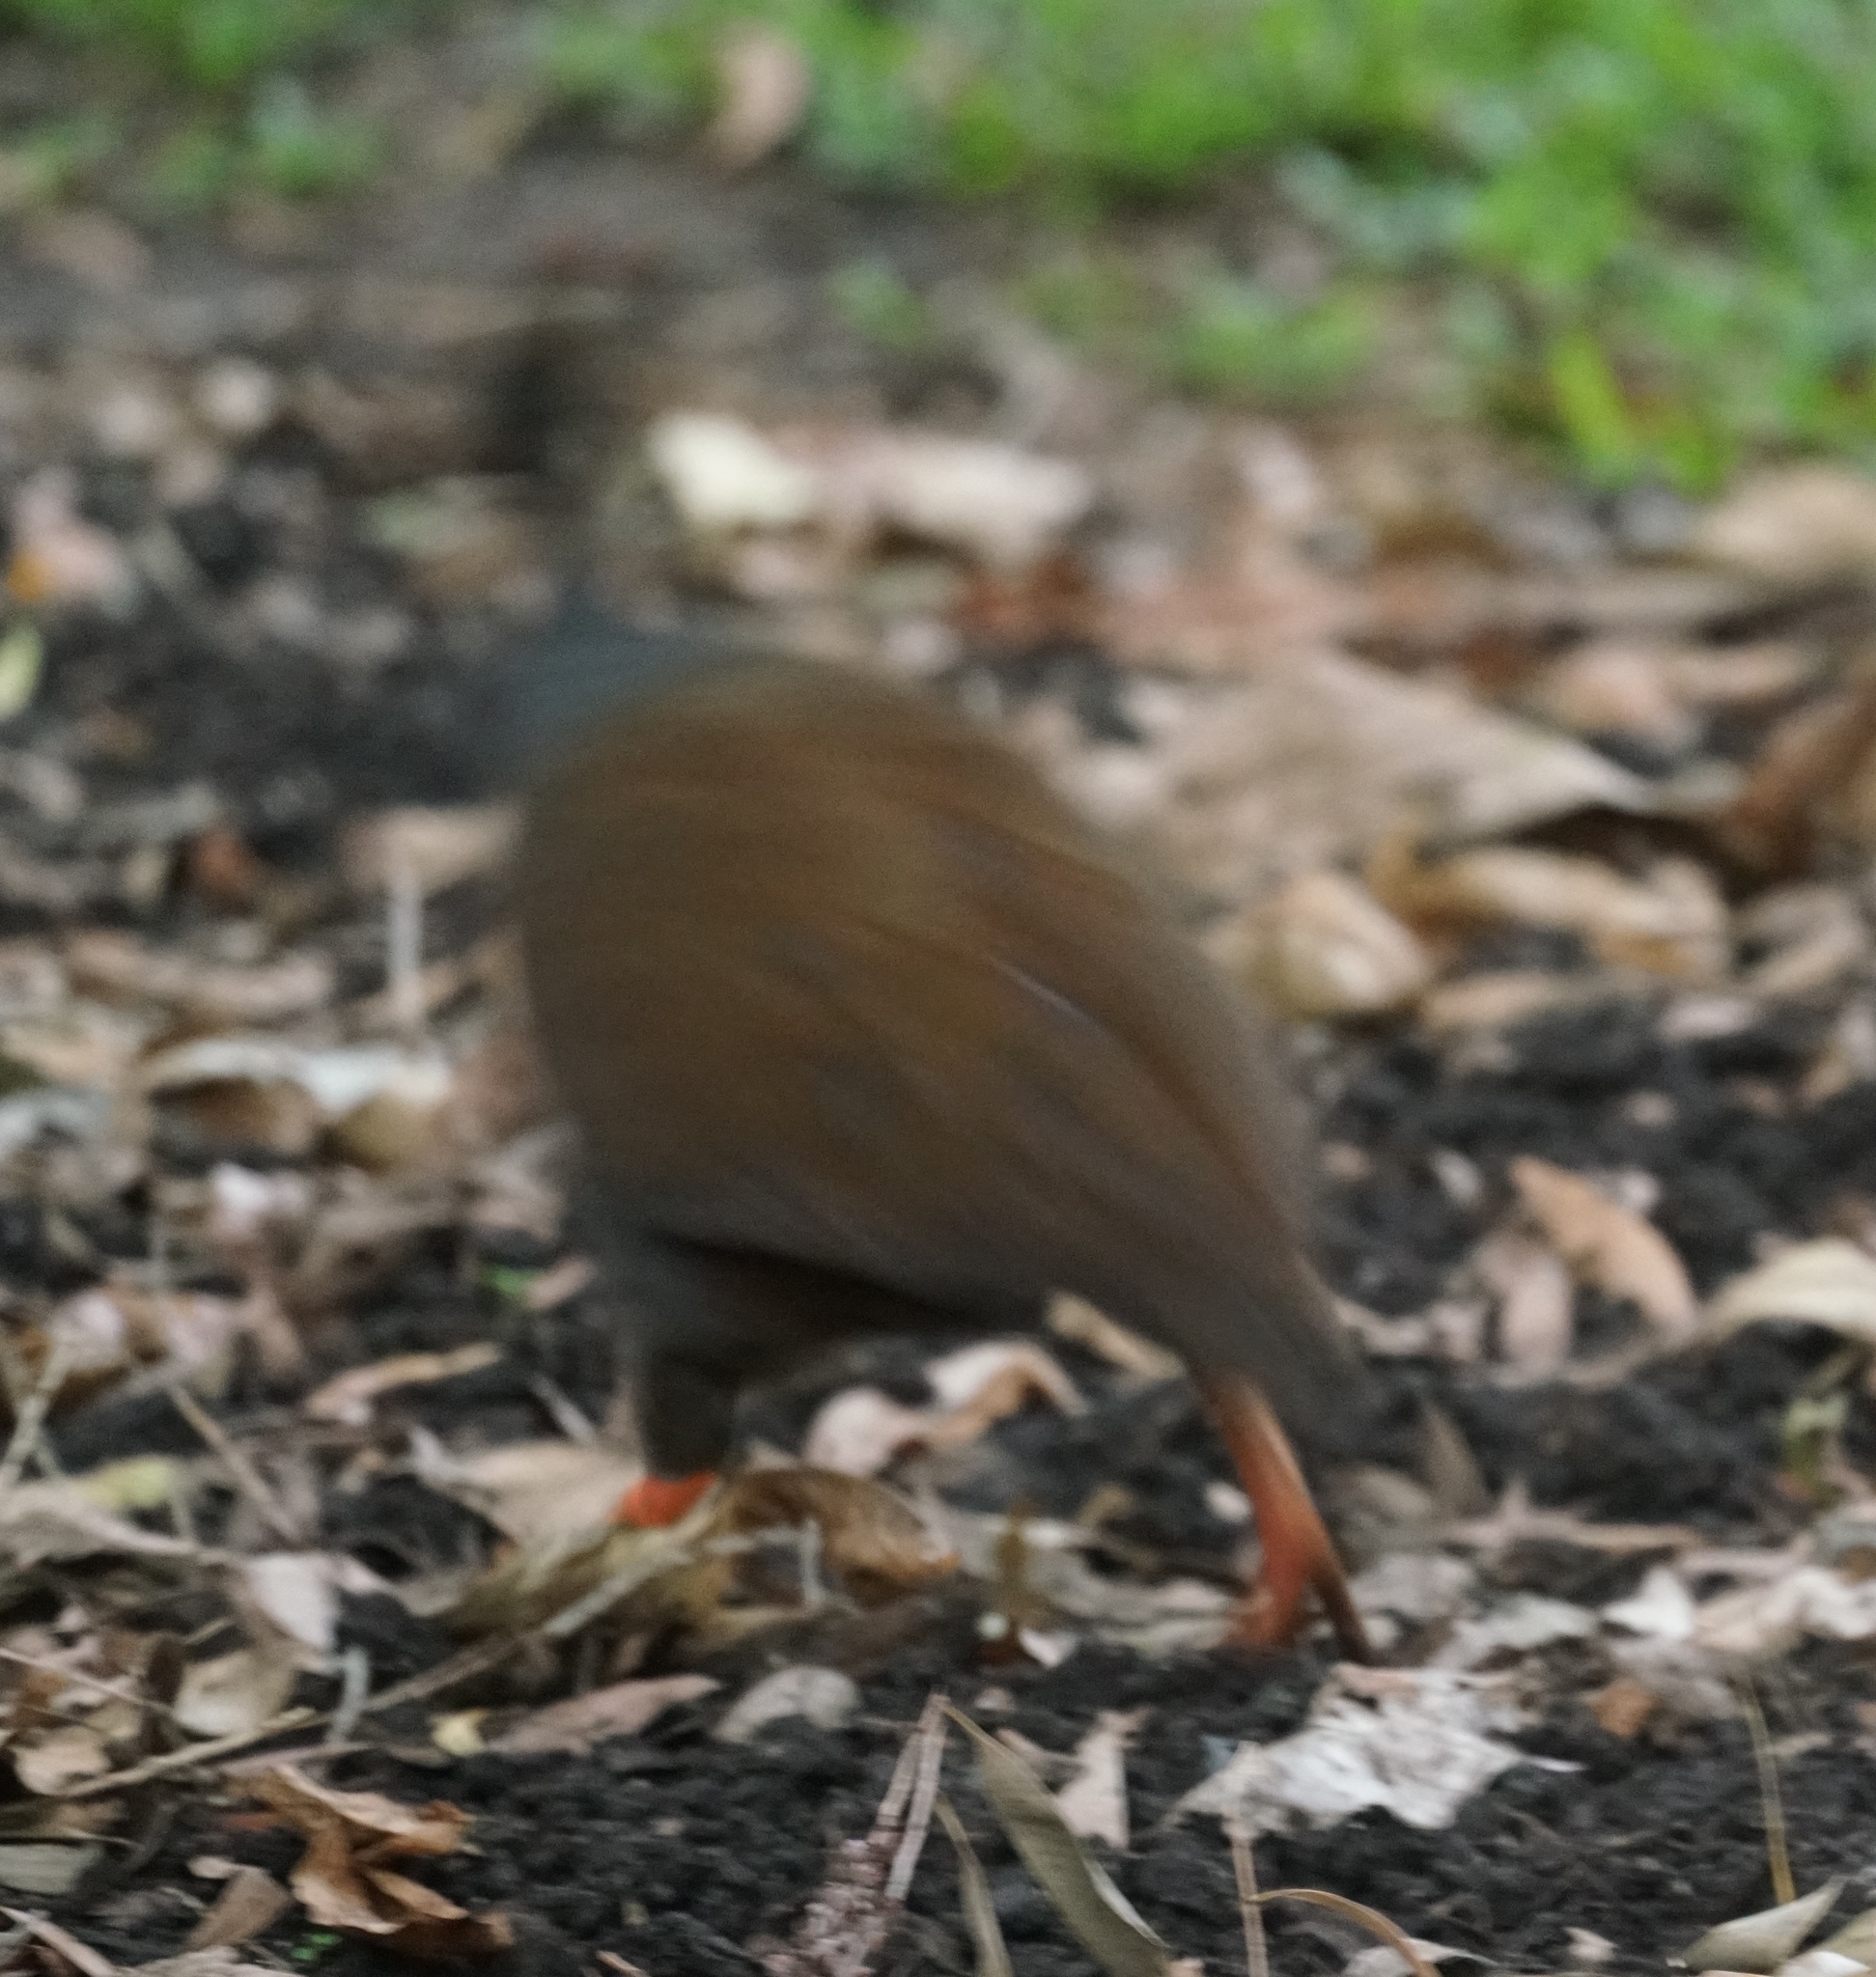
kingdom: Animalia
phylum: Chordata
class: Aves
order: Galliformes
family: Megapodiidae
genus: Megapodius
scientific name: Megapodius reinwardt
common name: Orange-footed scrubfowl
